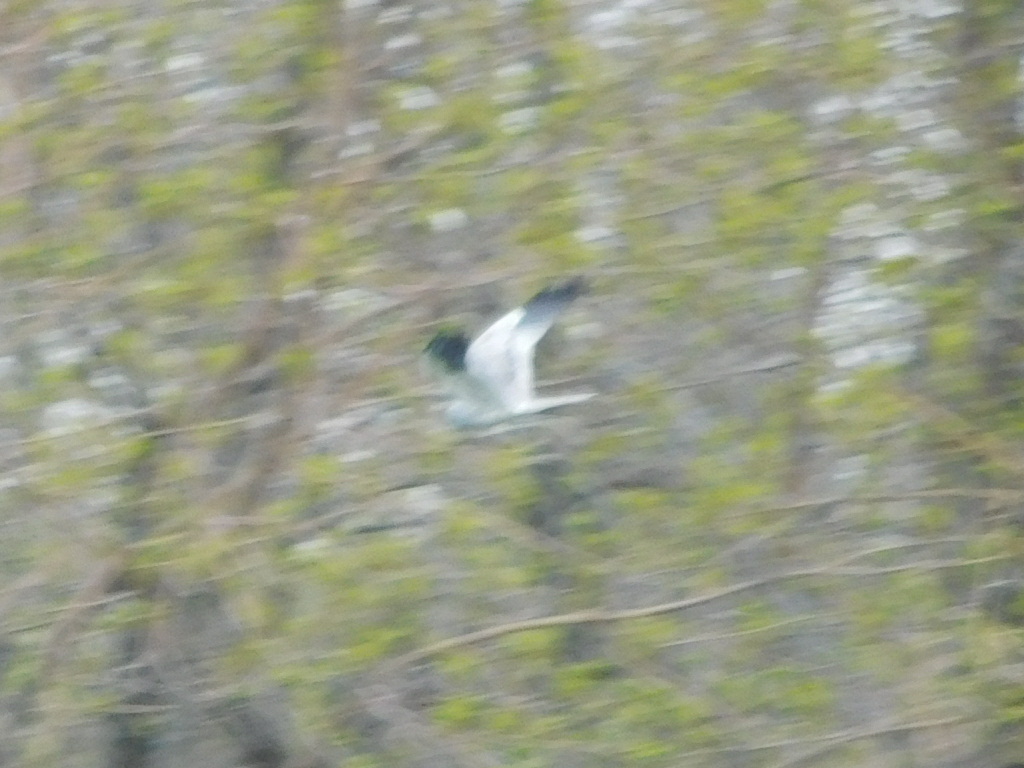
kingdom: Animalia
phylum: Chordata
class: Aves
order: Accipitriformes
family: Accipitridae
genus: Circus
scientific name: Circus pygargus
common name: Montagu's harrier
